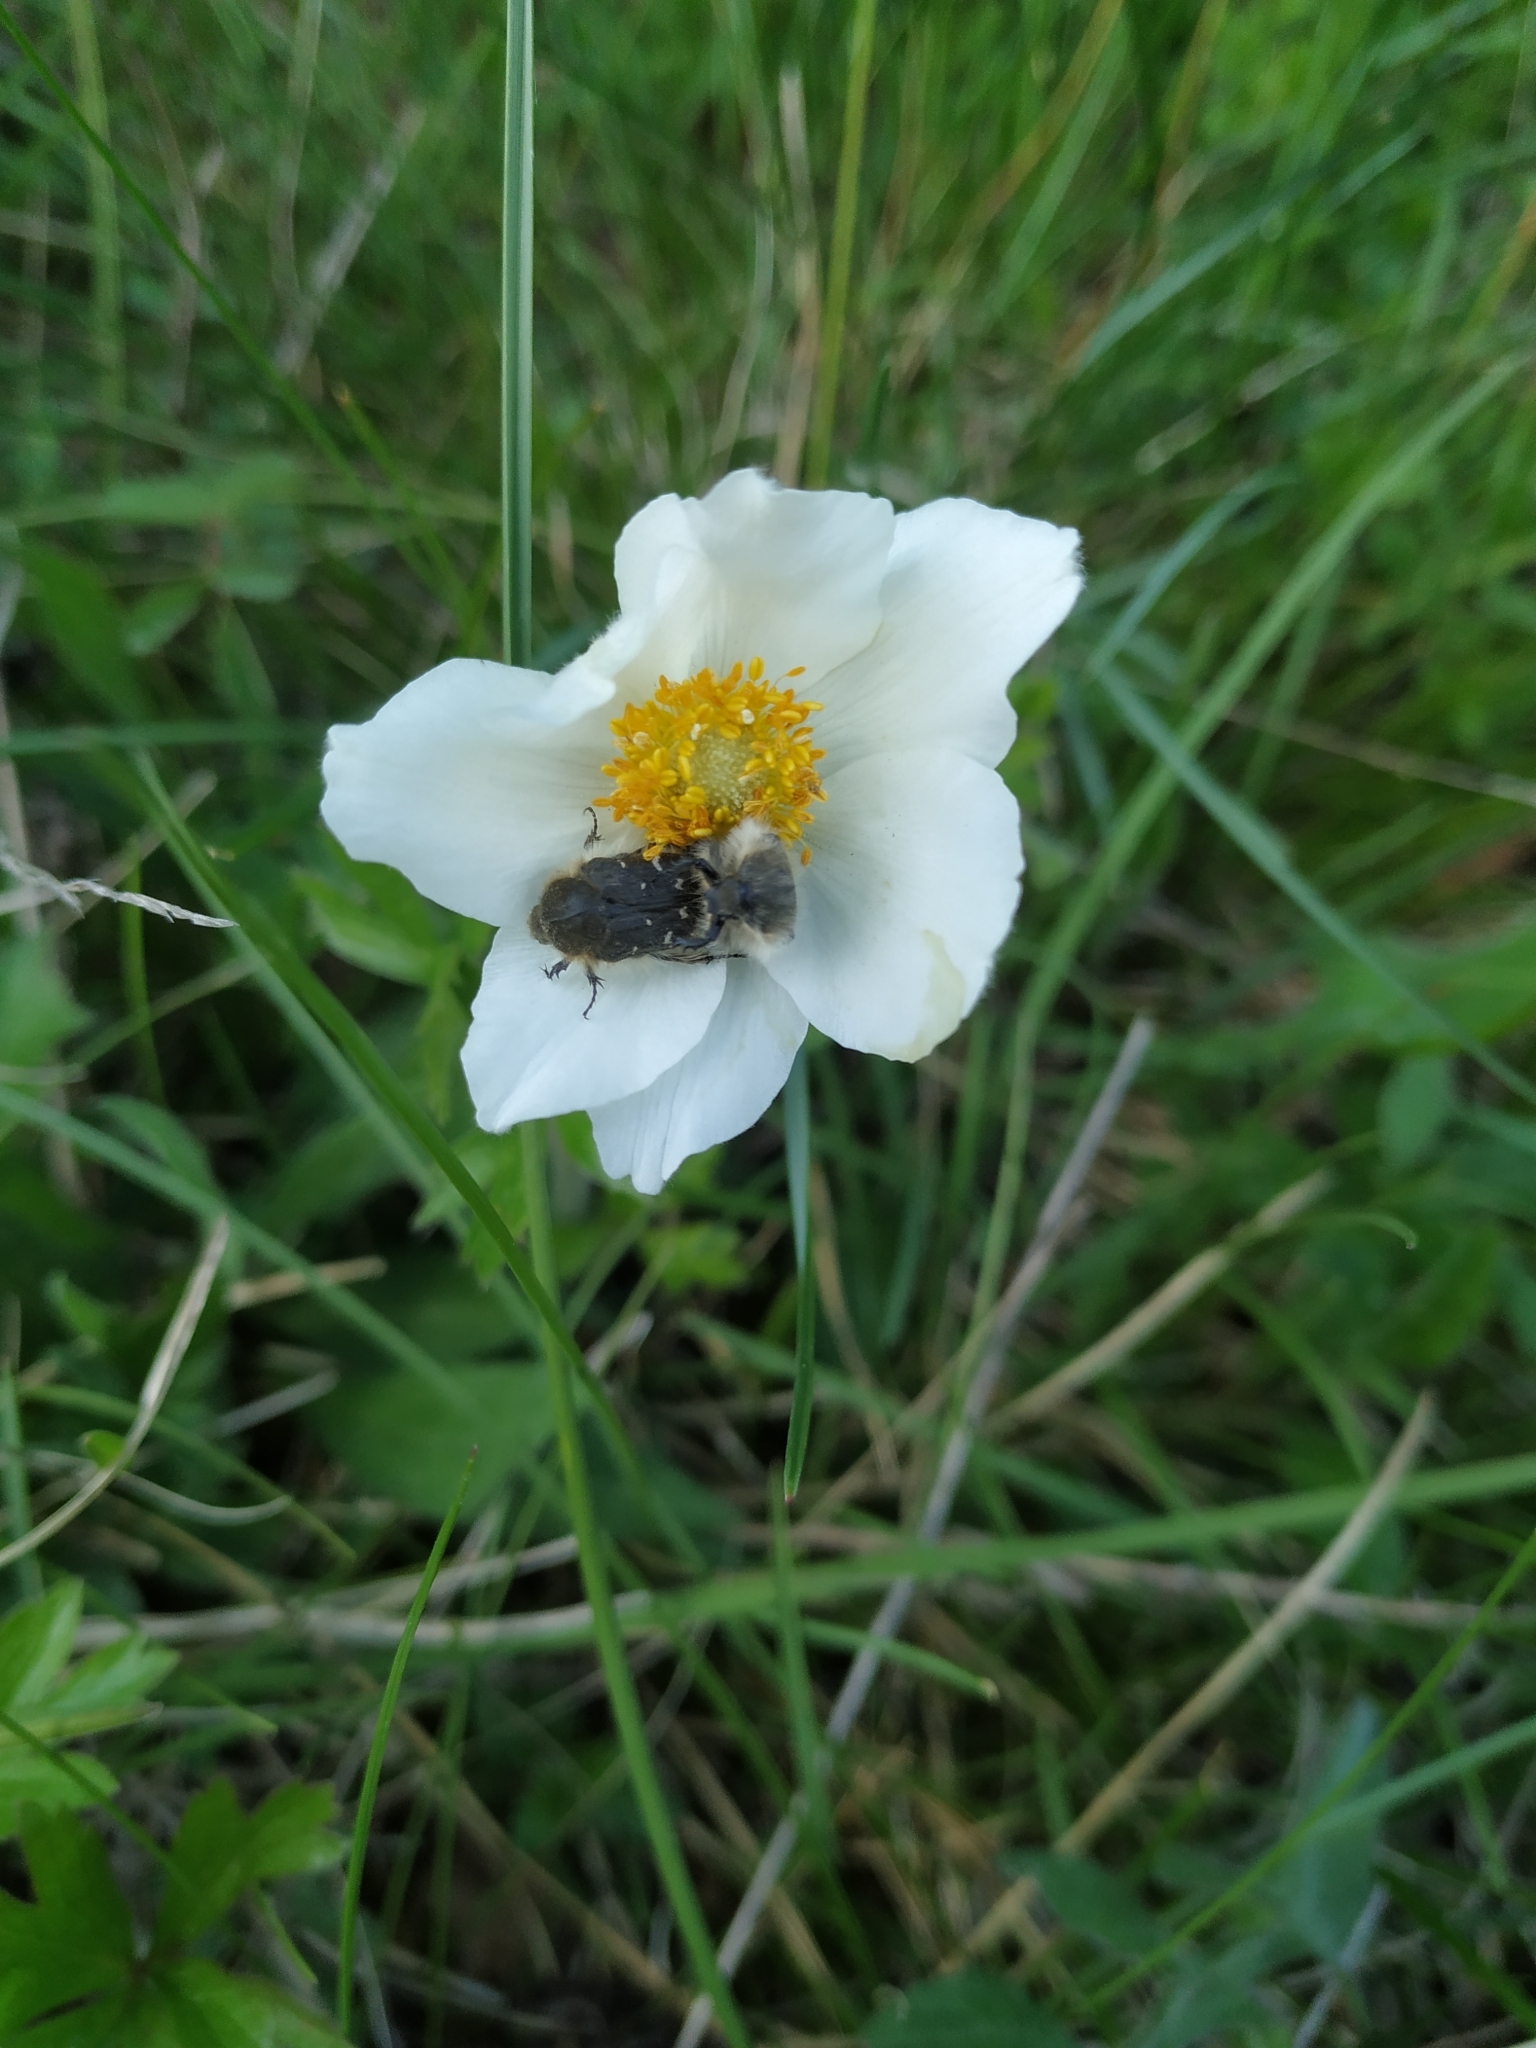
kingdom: Animalia
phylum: Arthropoda
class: Insecta
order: Coleoptera
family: Scarabaeidae
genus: Tropinota
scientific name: Tropinota hirta
